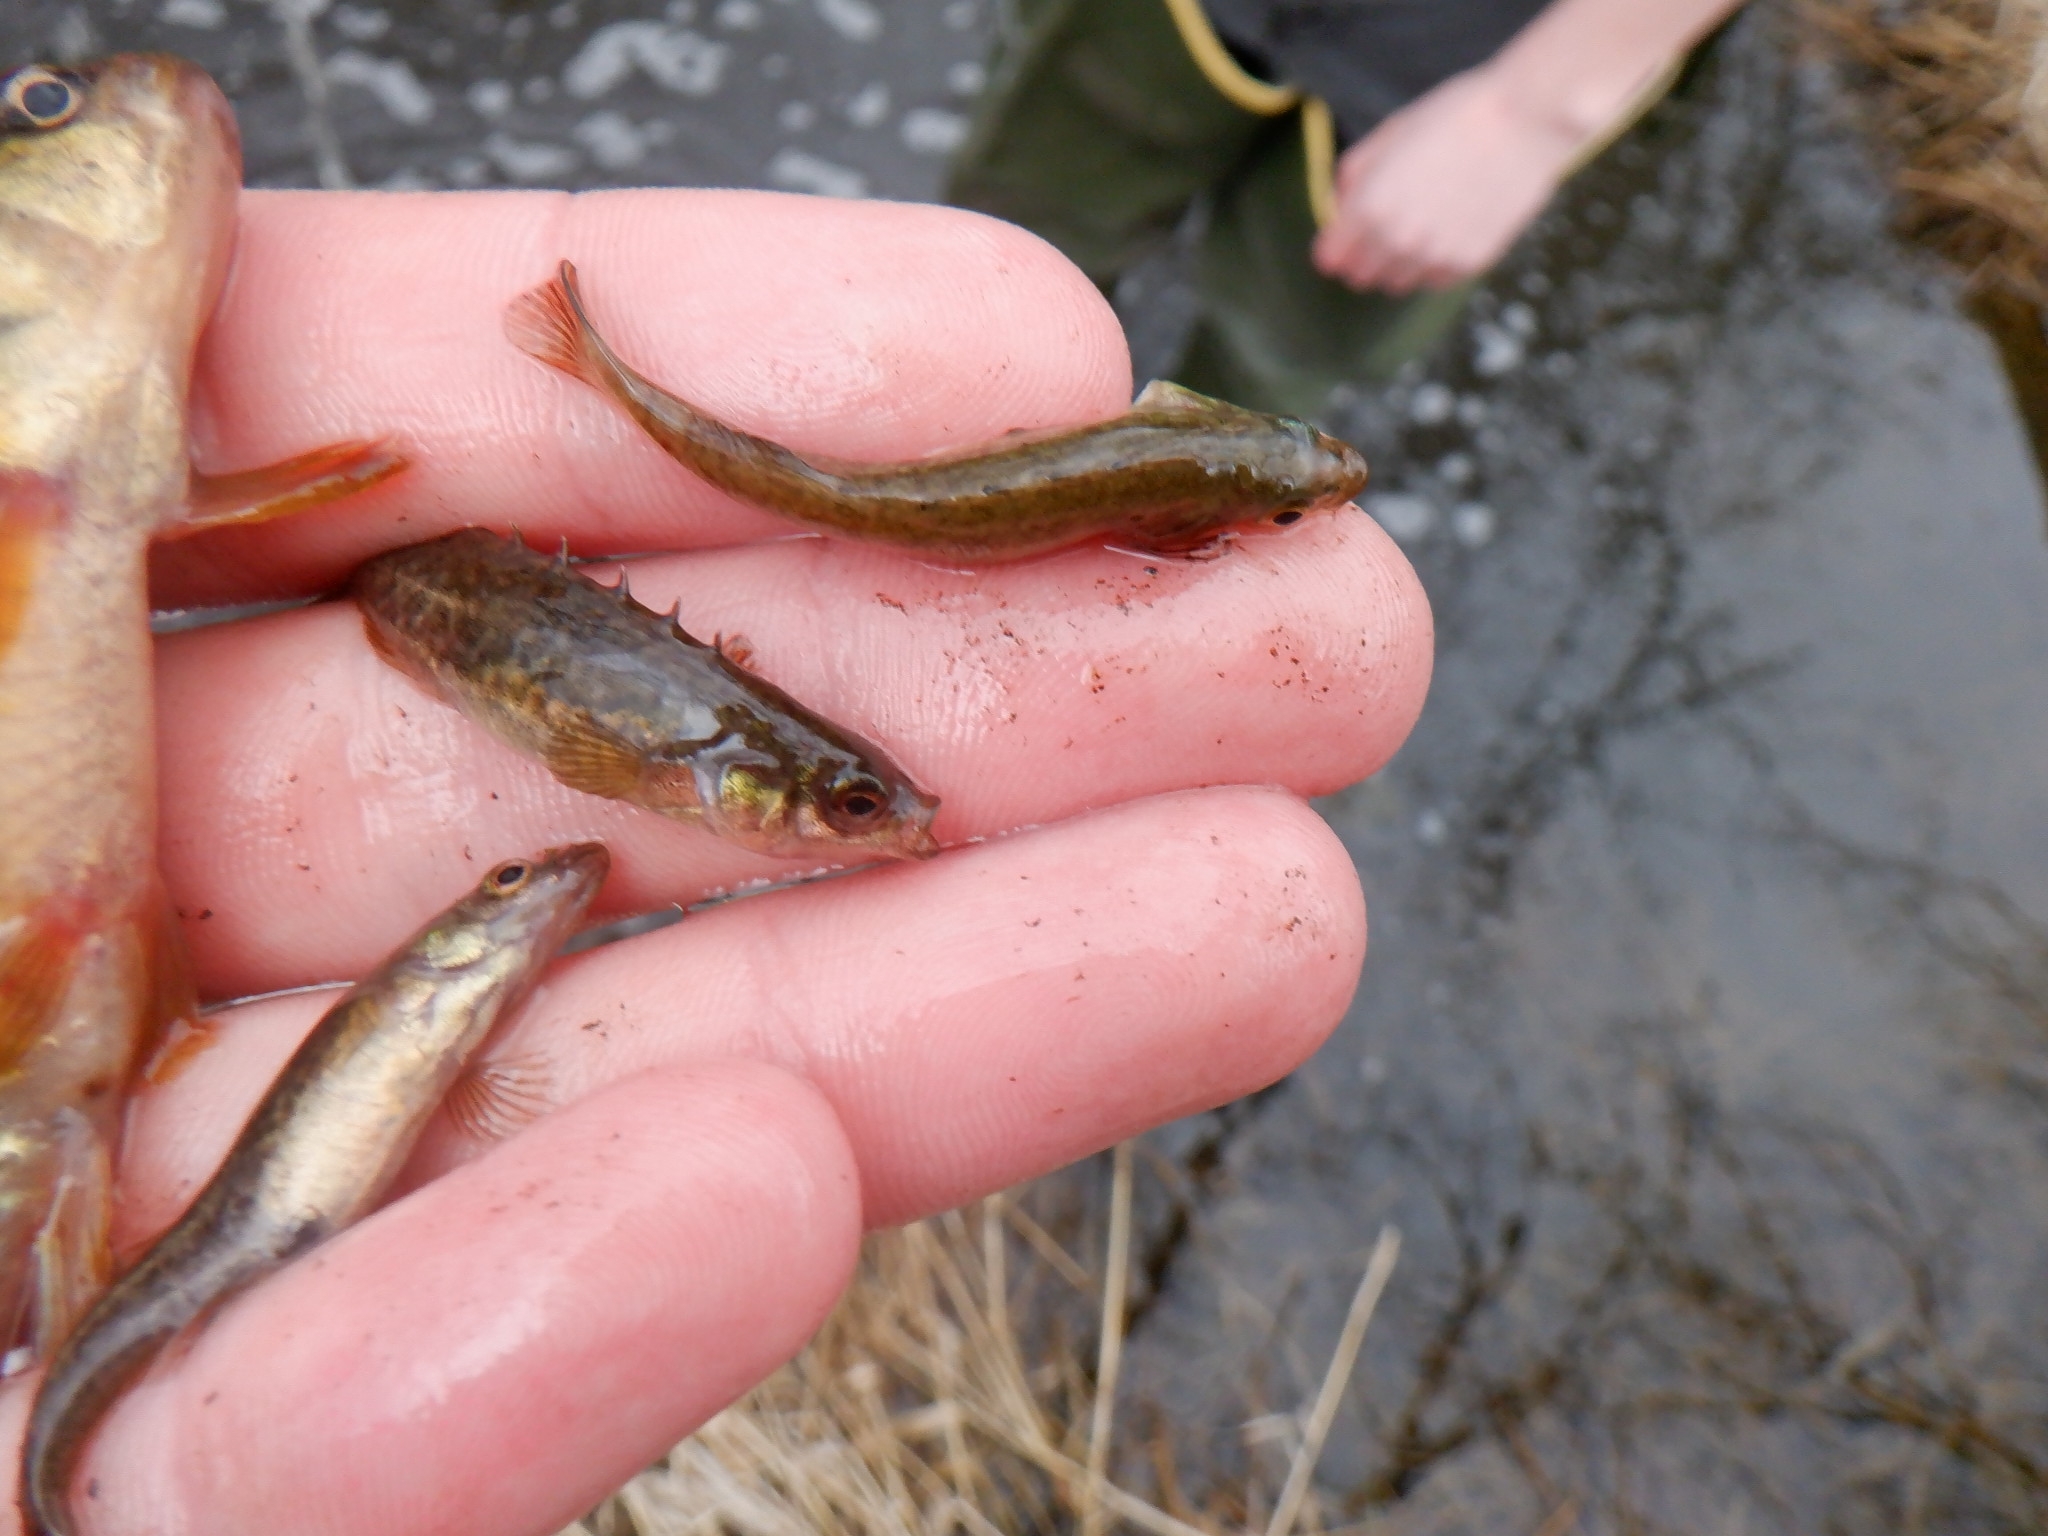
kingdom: Animalia
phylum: Chordata
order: Gasterosteiformes
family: Gasterosteidae
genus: Culaea
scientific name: Culaea inconstans
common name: Brook stickleback
